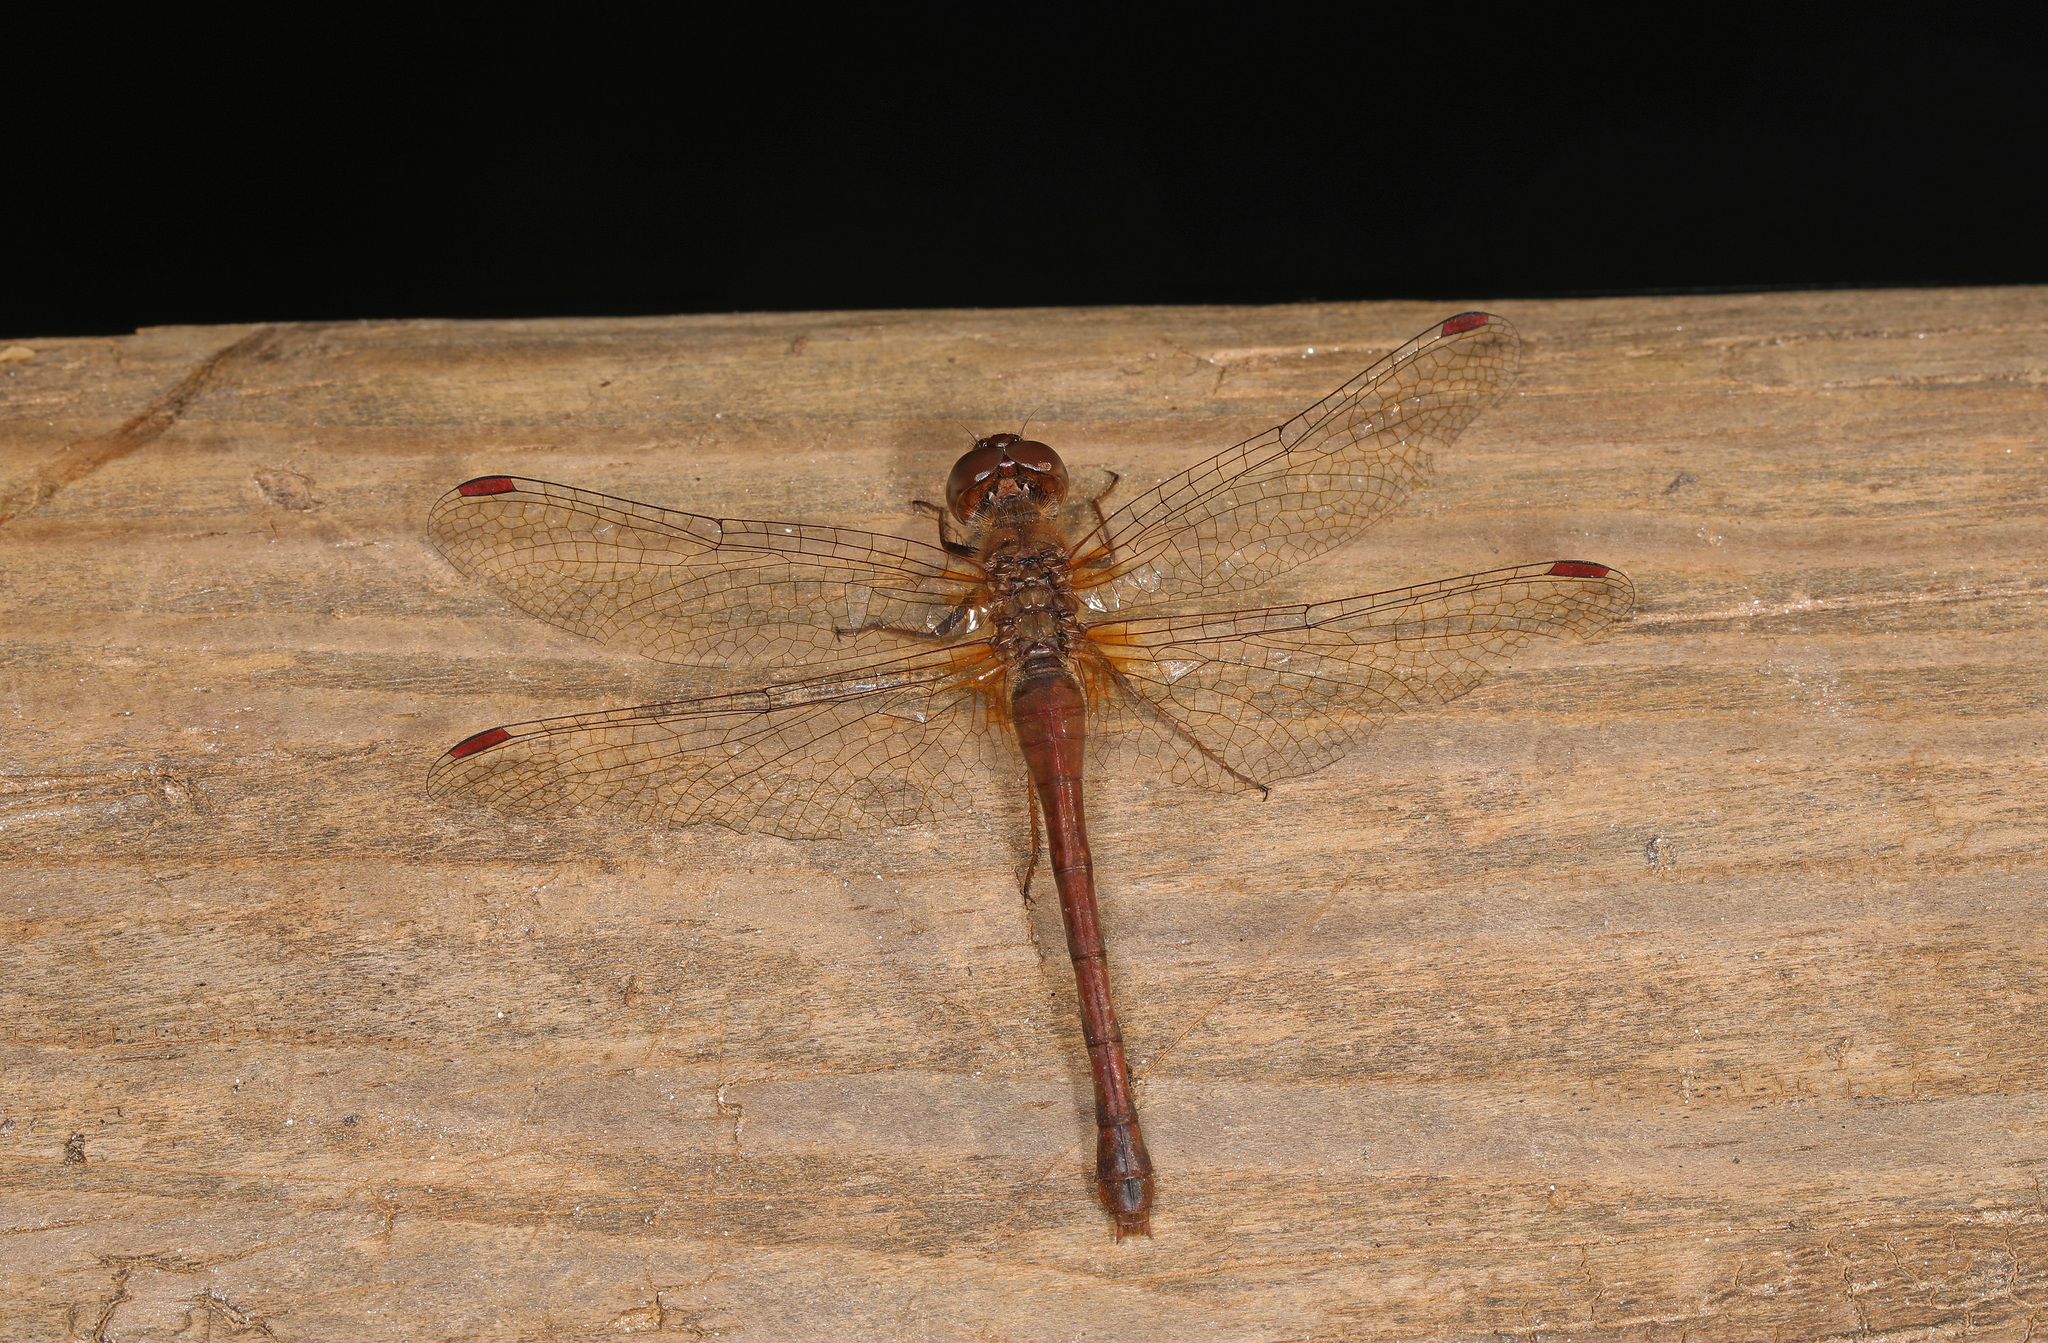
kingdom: Animalia
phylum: Arthropoda
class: Insecta
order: Odonata
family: Libellulidae
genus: Sympetrum
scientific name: Sympetrum vicinum
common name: Autumn meadowhawk
